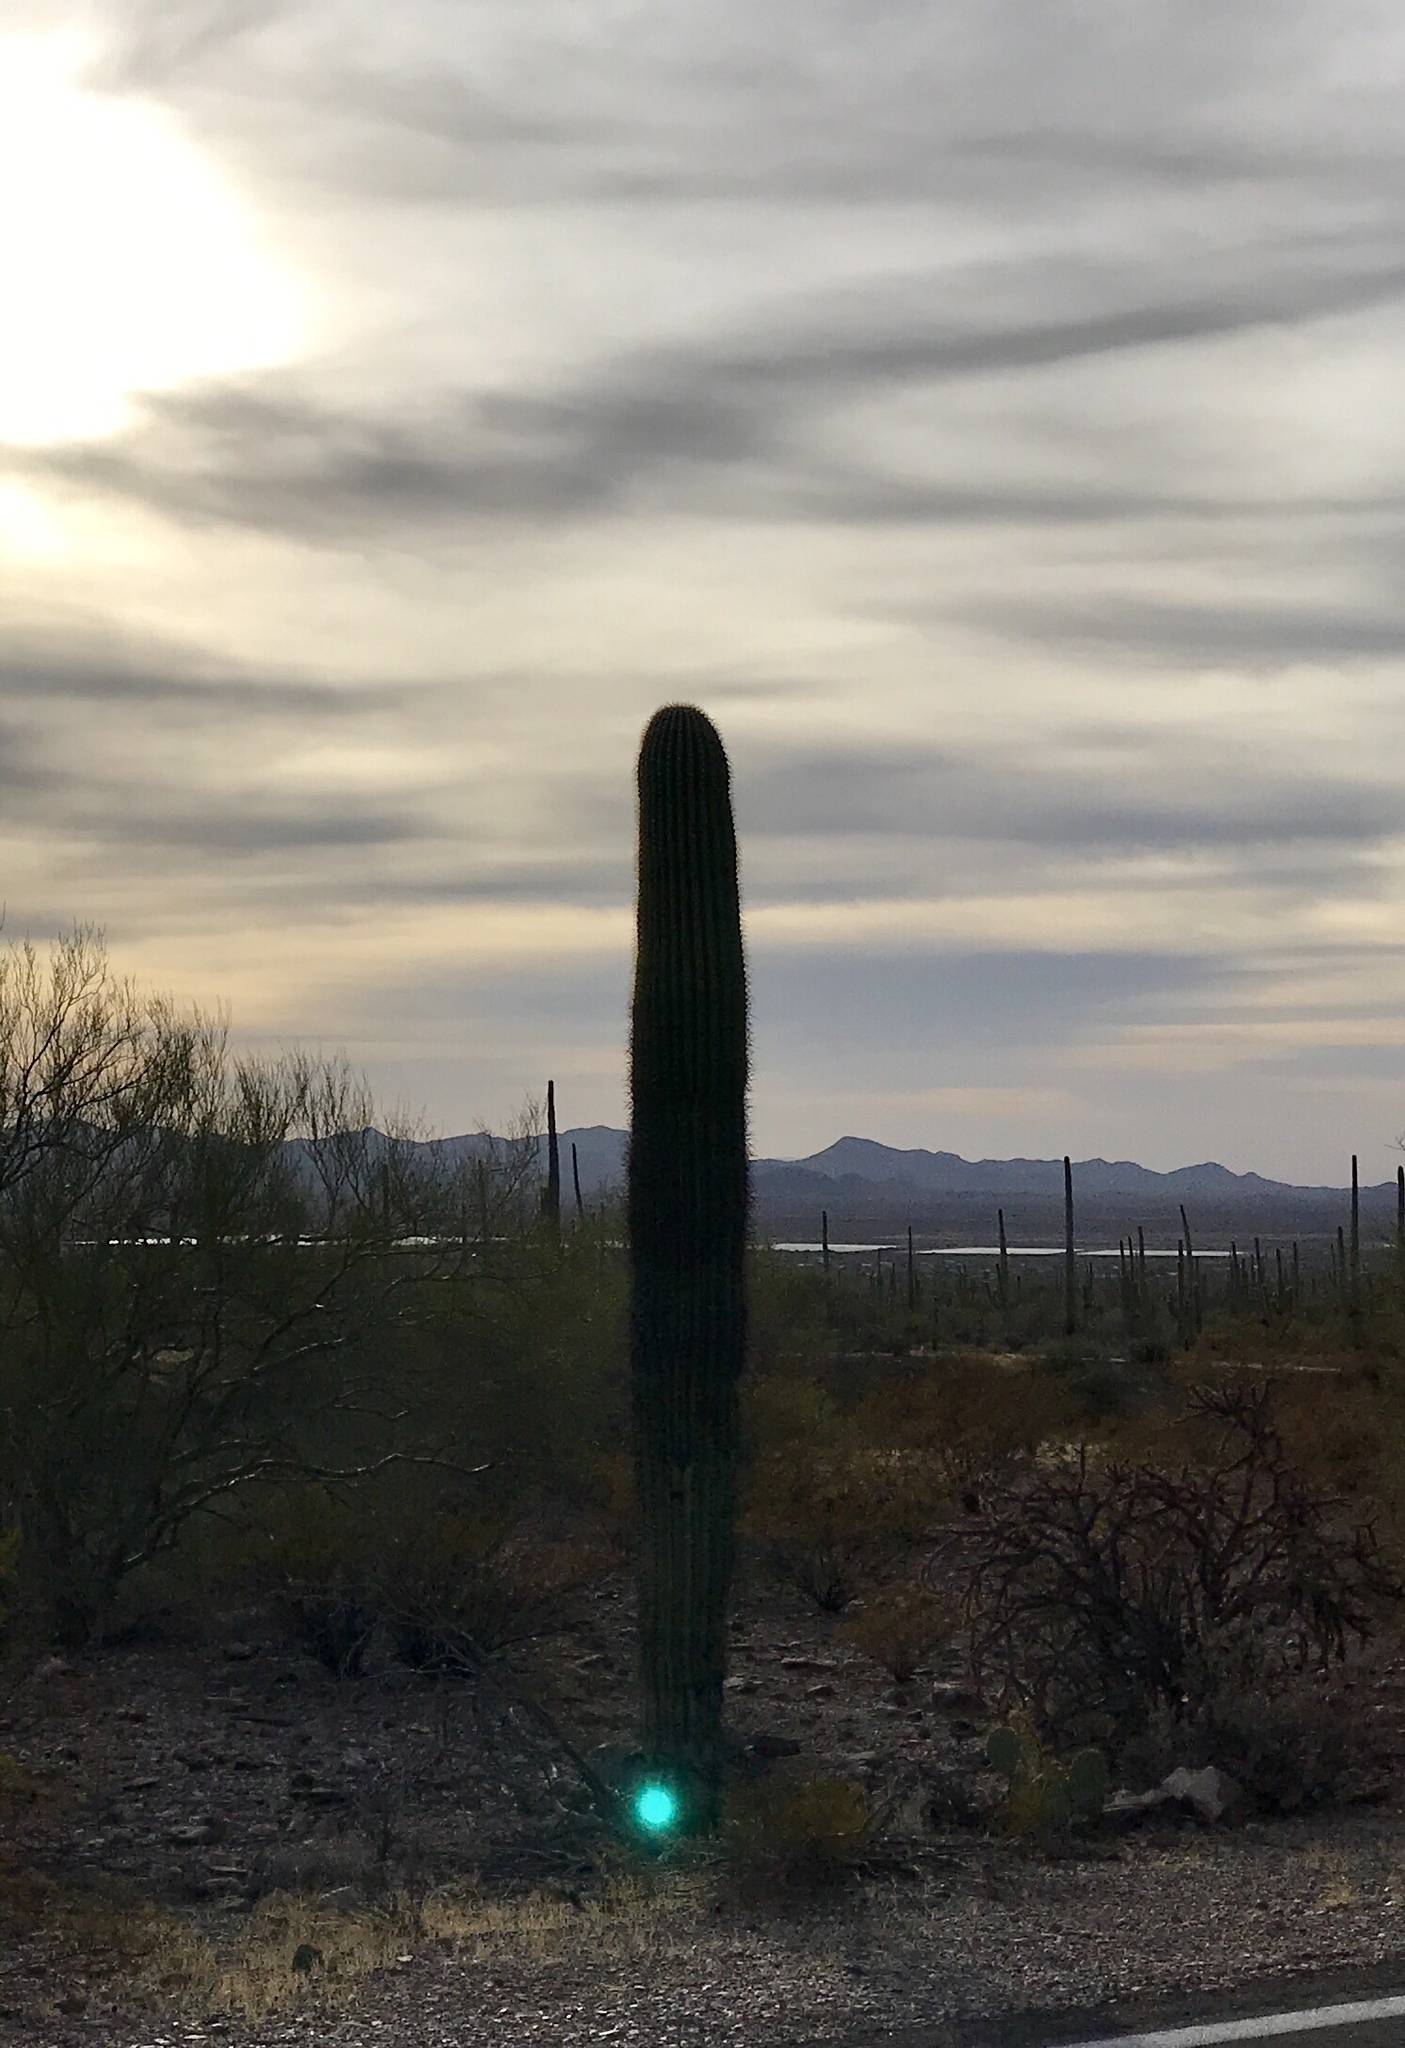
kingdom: Plantae
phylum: Tracheophyta
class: Magnoliopsida
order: Caryophyllales
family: Cactaceae
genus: Carnegiea
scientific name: Carnegiea gigantea
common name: Saguaro
